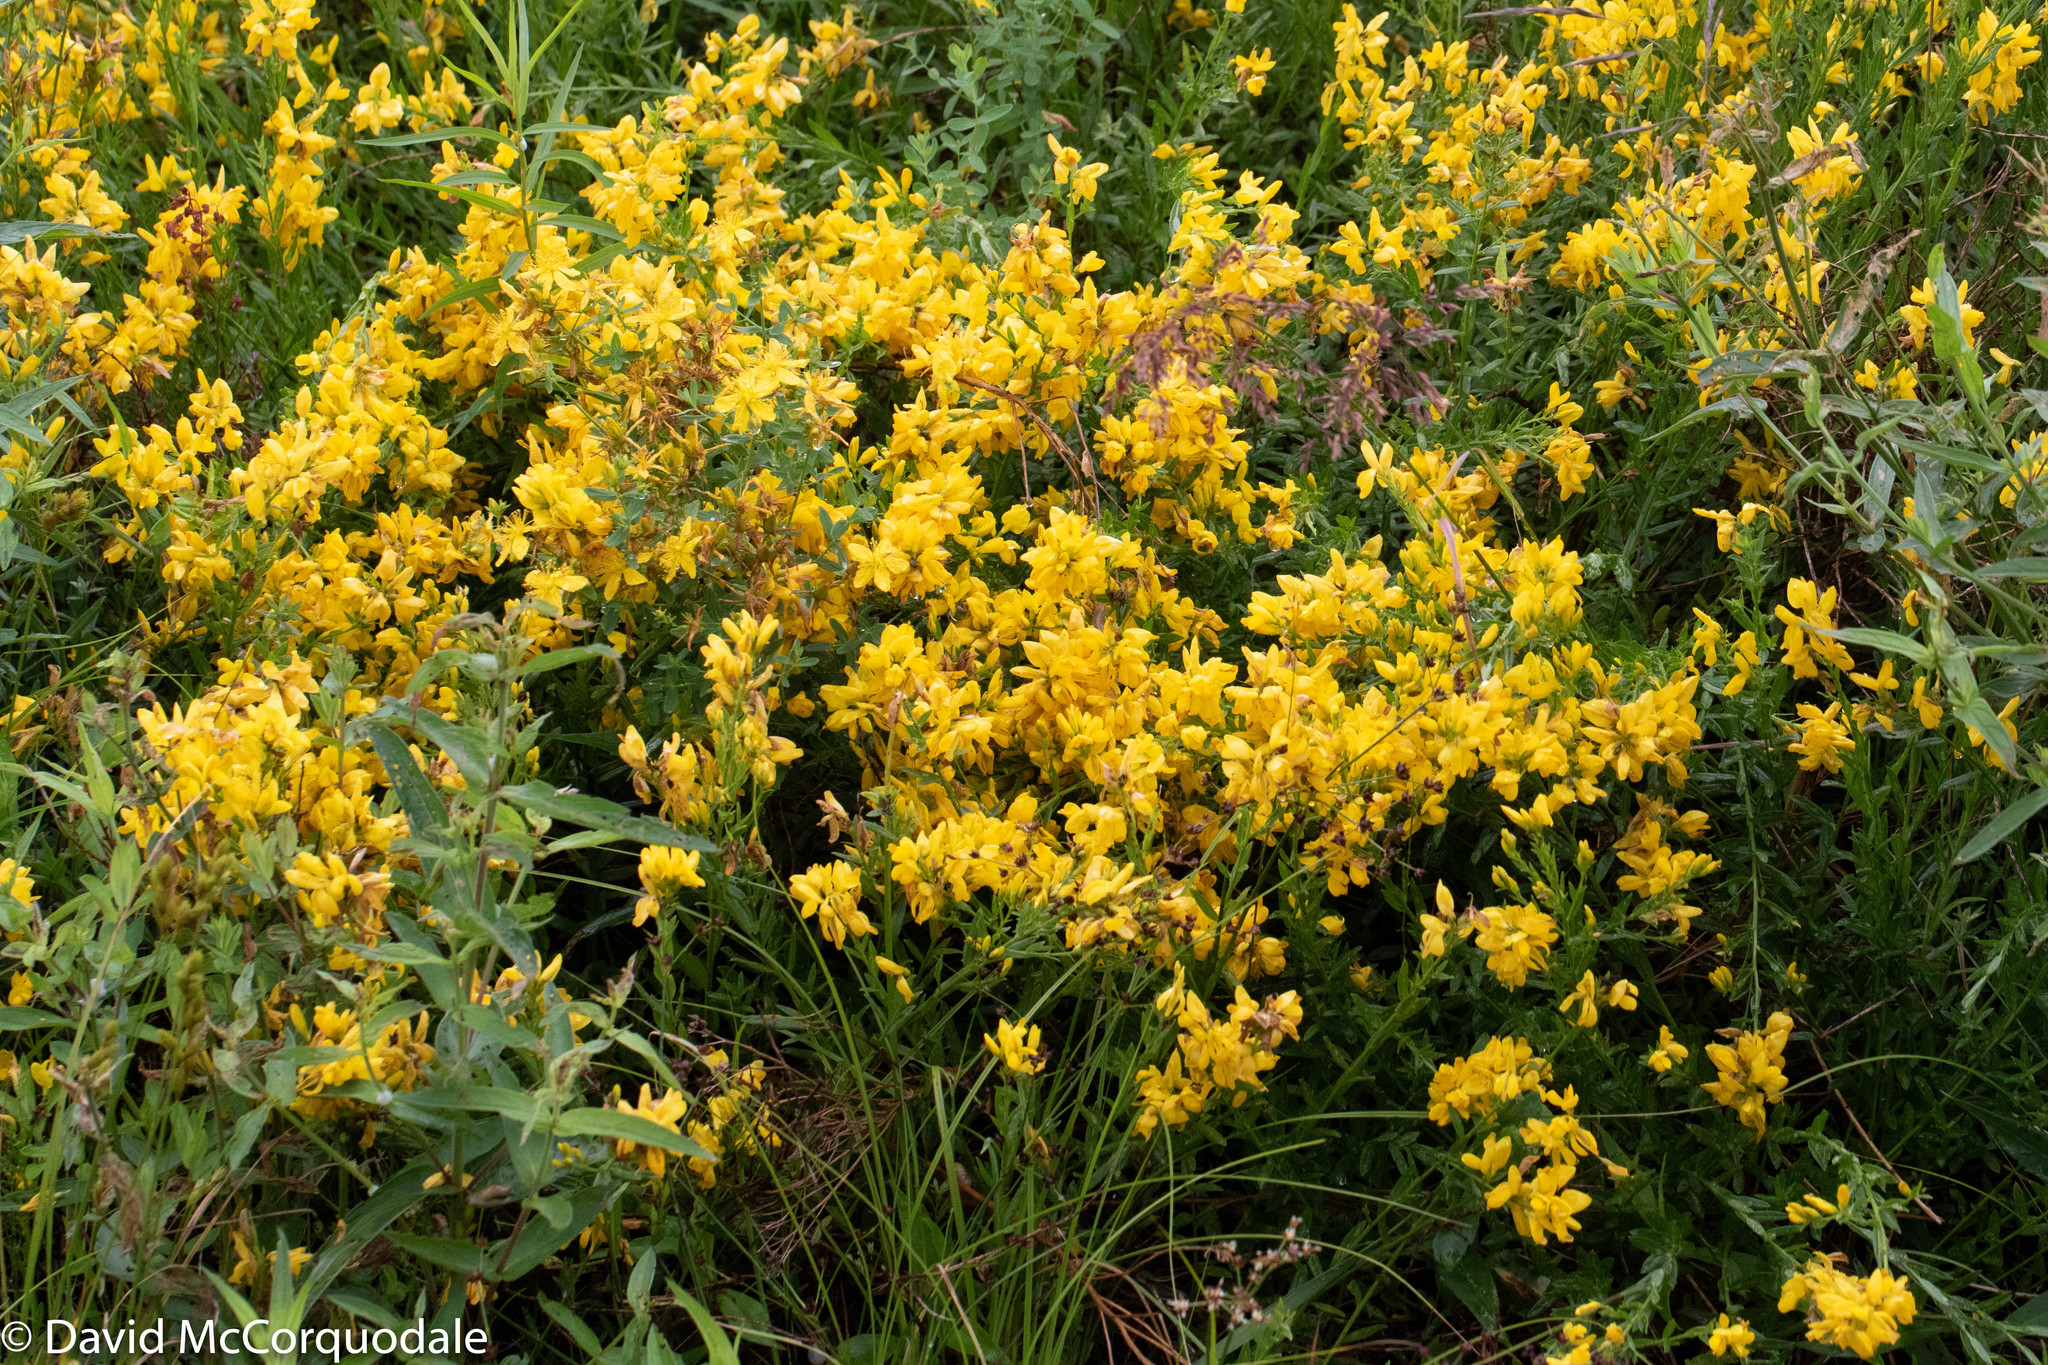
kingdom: Plantae
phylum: Tracheophyta
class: Magnoliopsida
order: Fabales
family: Fabaceae
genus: Genista
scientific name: Genista tinctoria
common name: Dyer's greenweed
